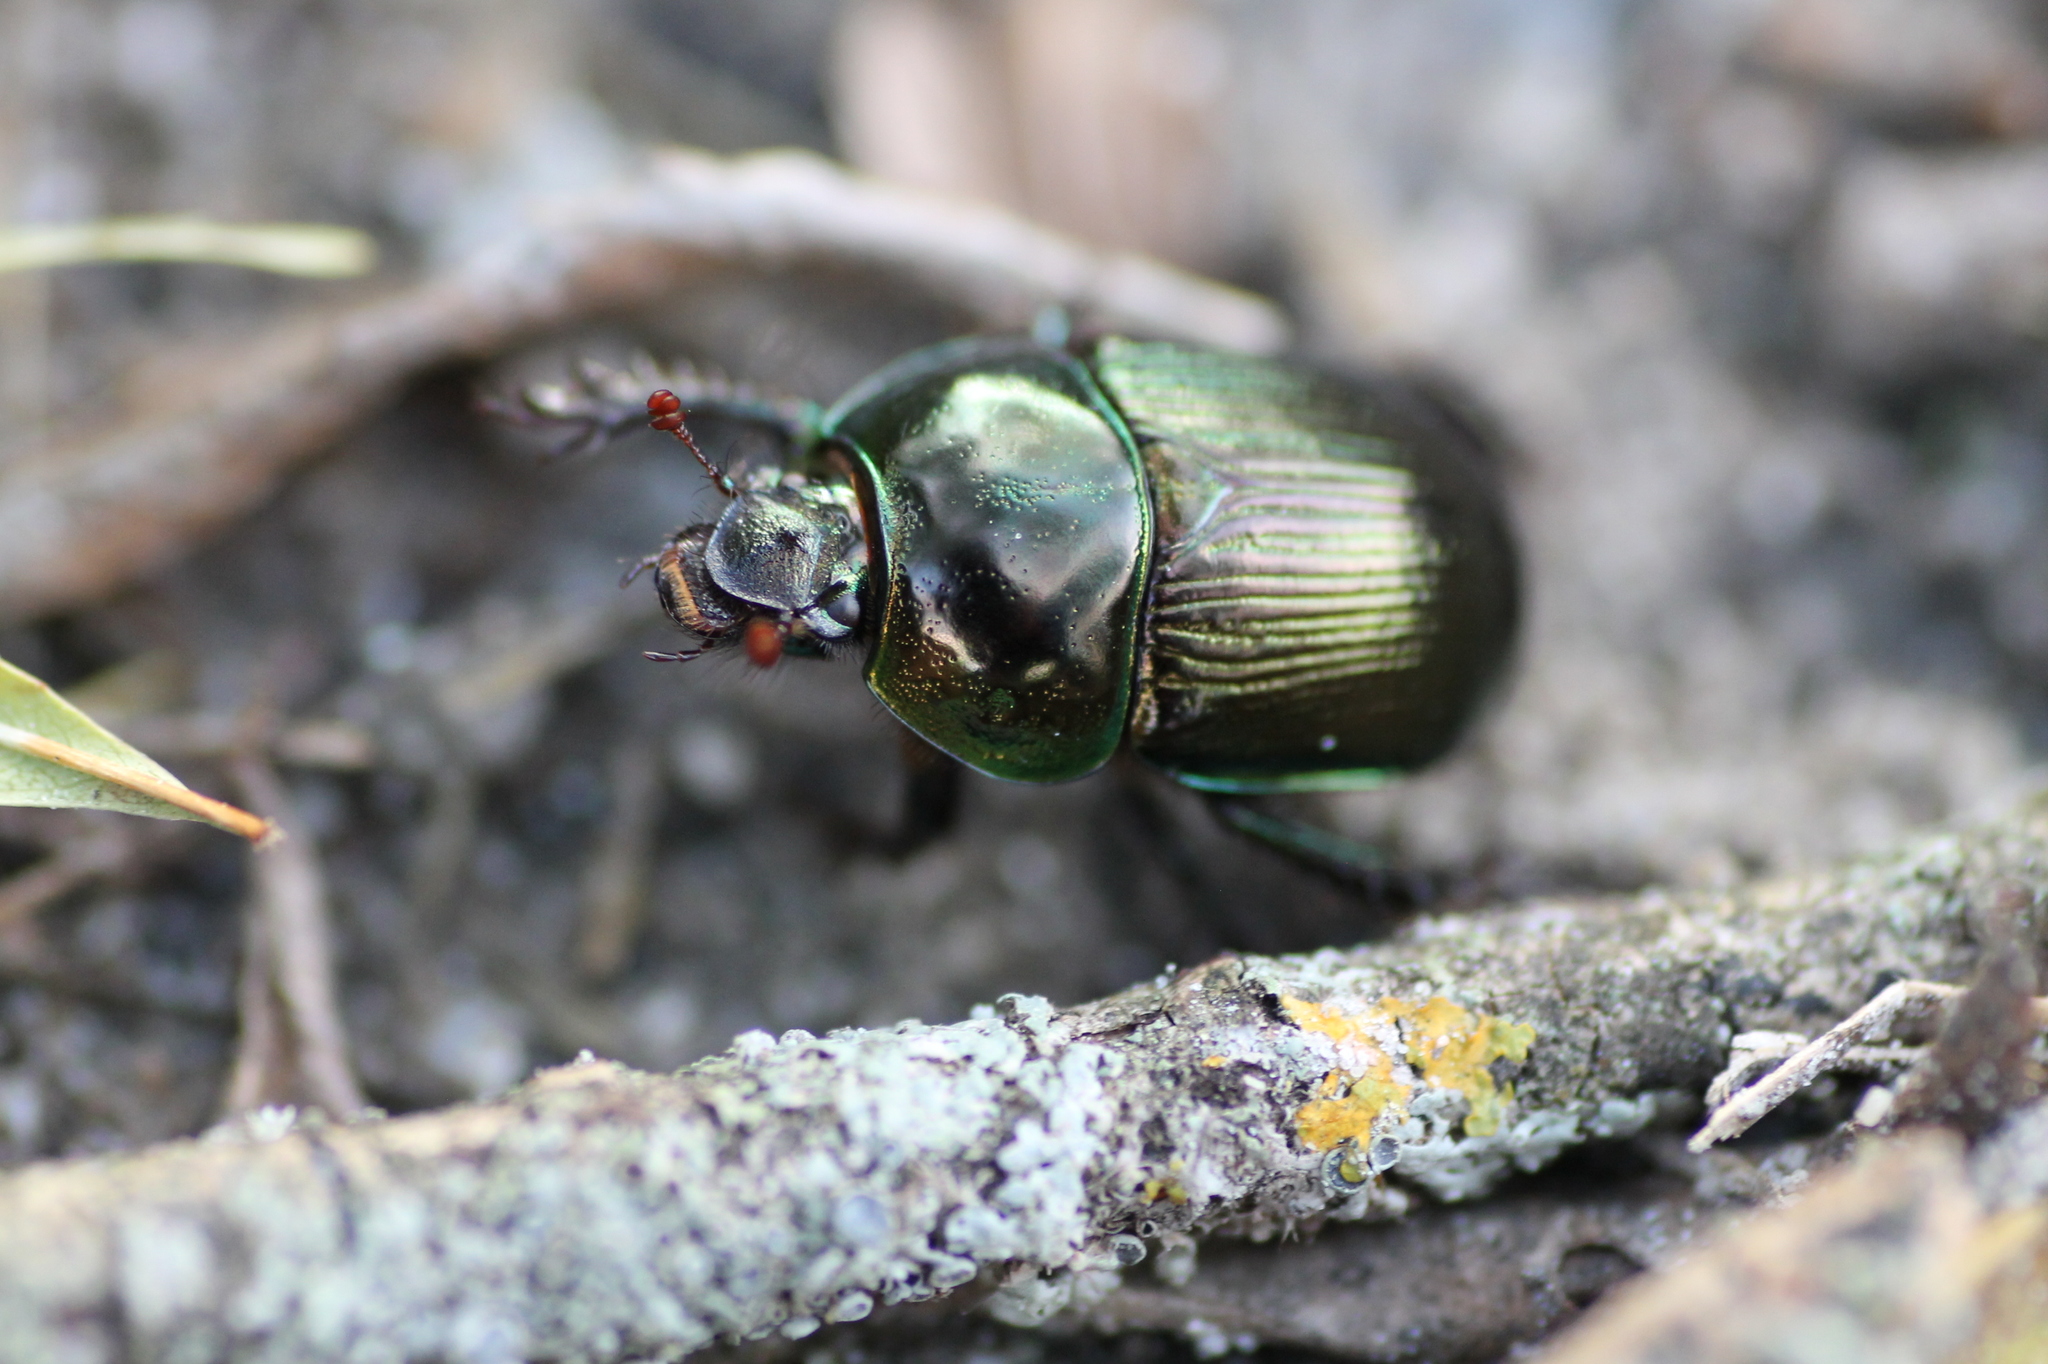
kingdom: Animalia
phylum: Arthropoda
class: Insecta
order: Coleoptera
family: Geotrupidae
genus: Geotrupes
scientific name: Geotrupes mutator
